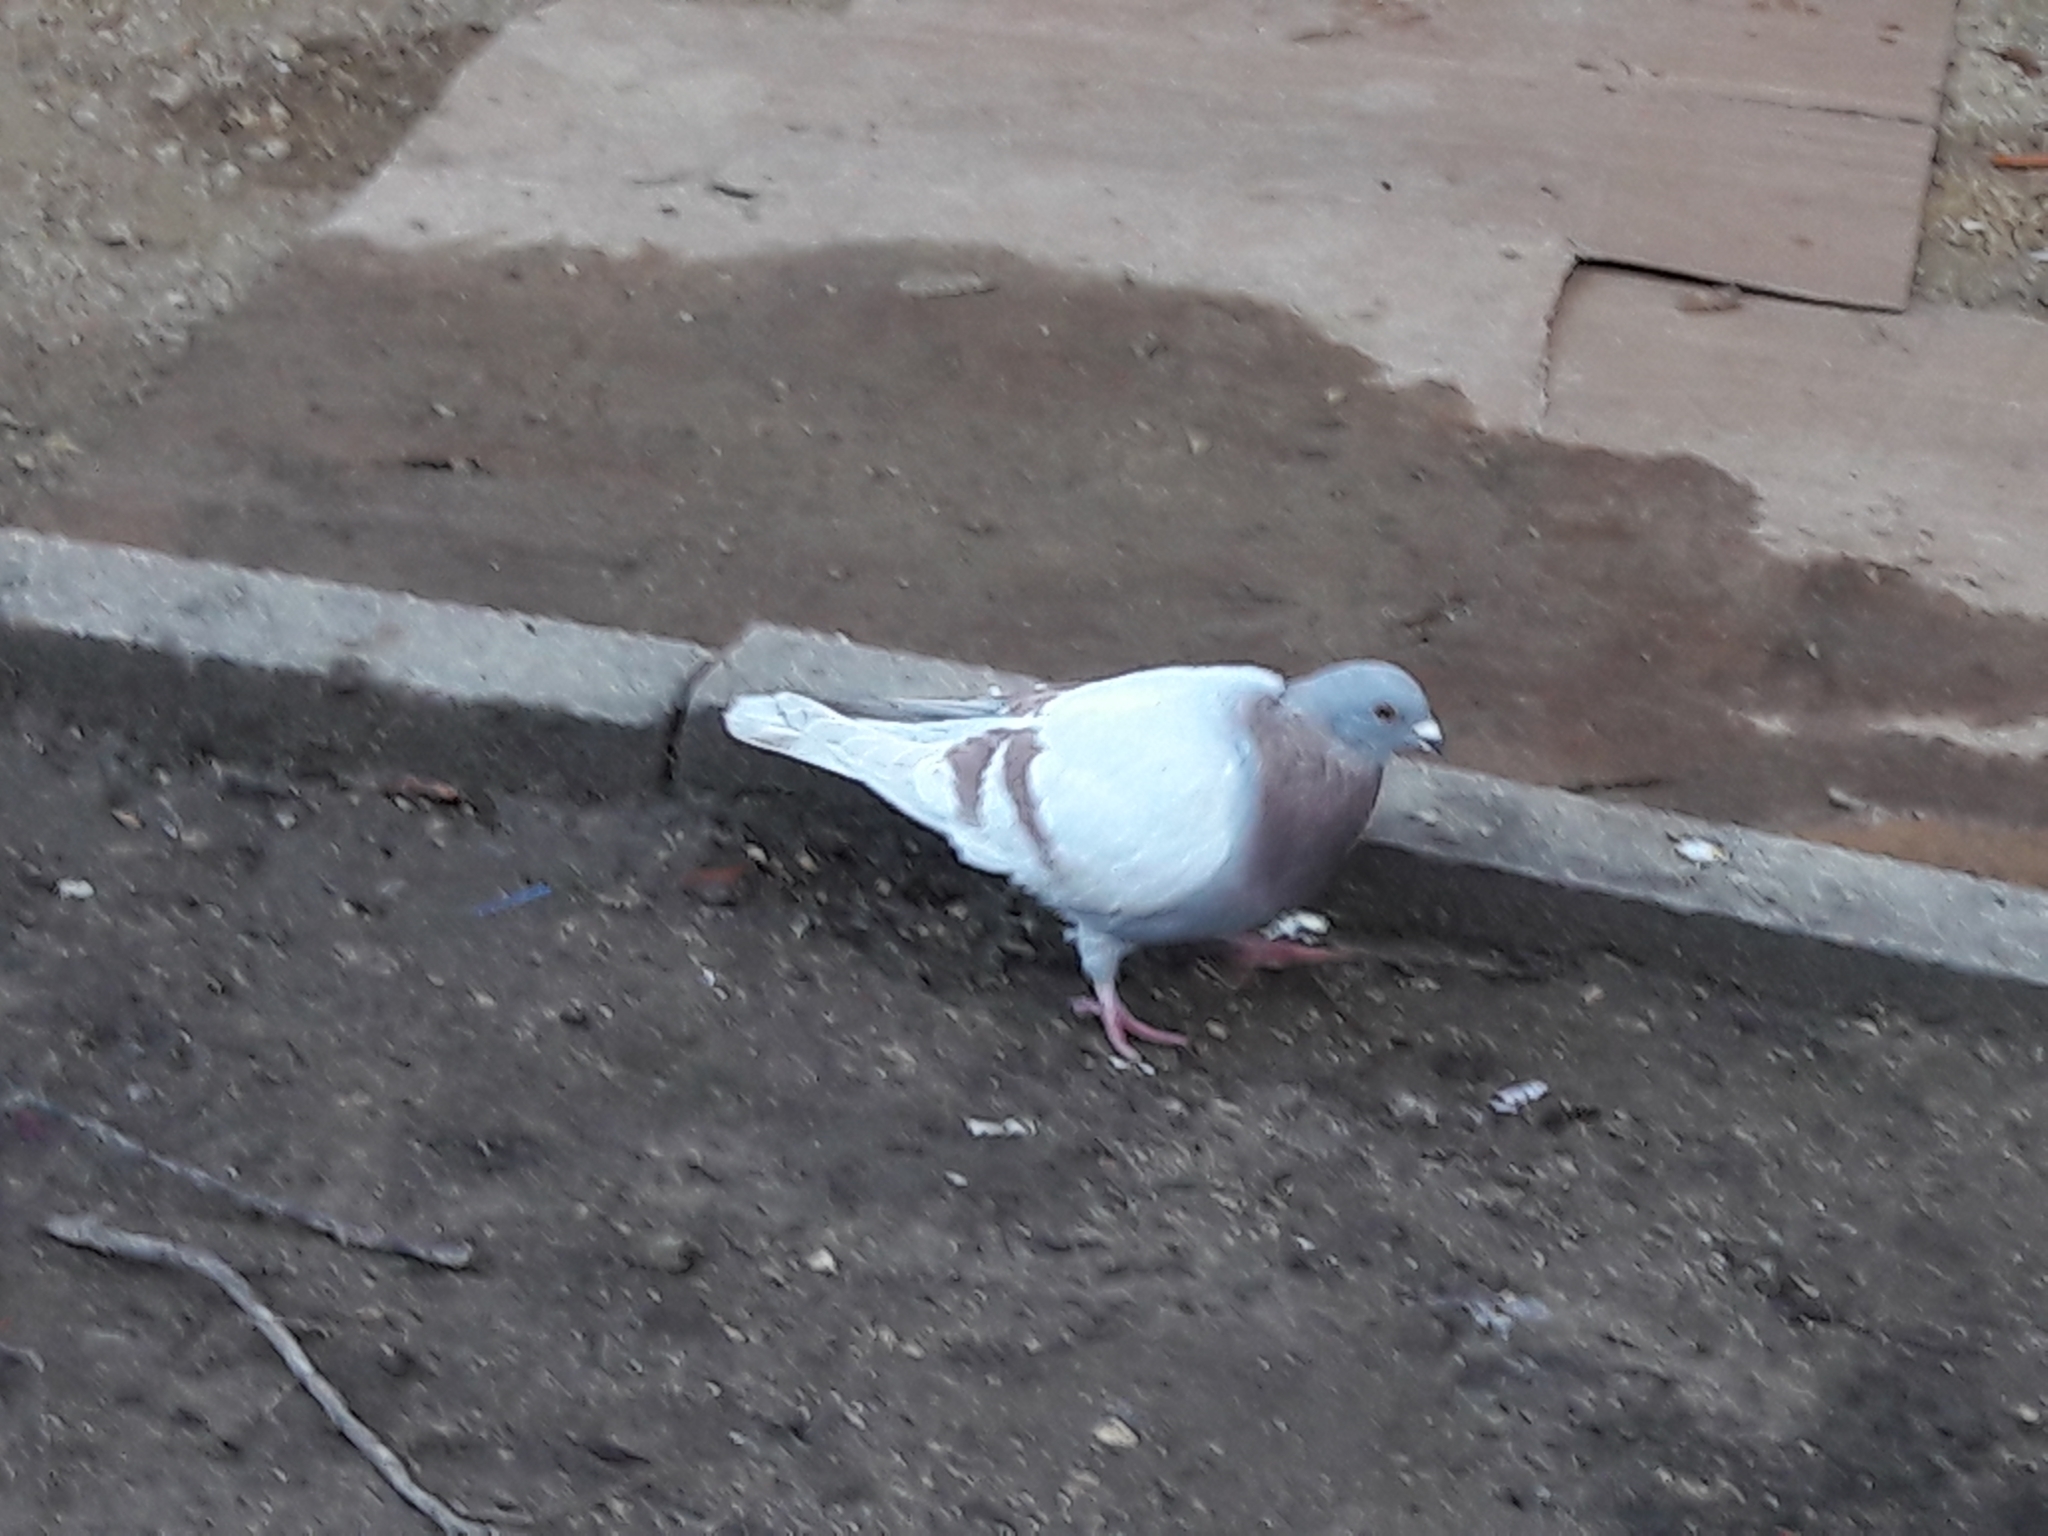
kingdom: Animalia
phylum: Chordata
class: Aves
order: Columbiformes
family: Columbidae
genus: Columba
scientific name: Columba livia
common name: Rock pigeon
